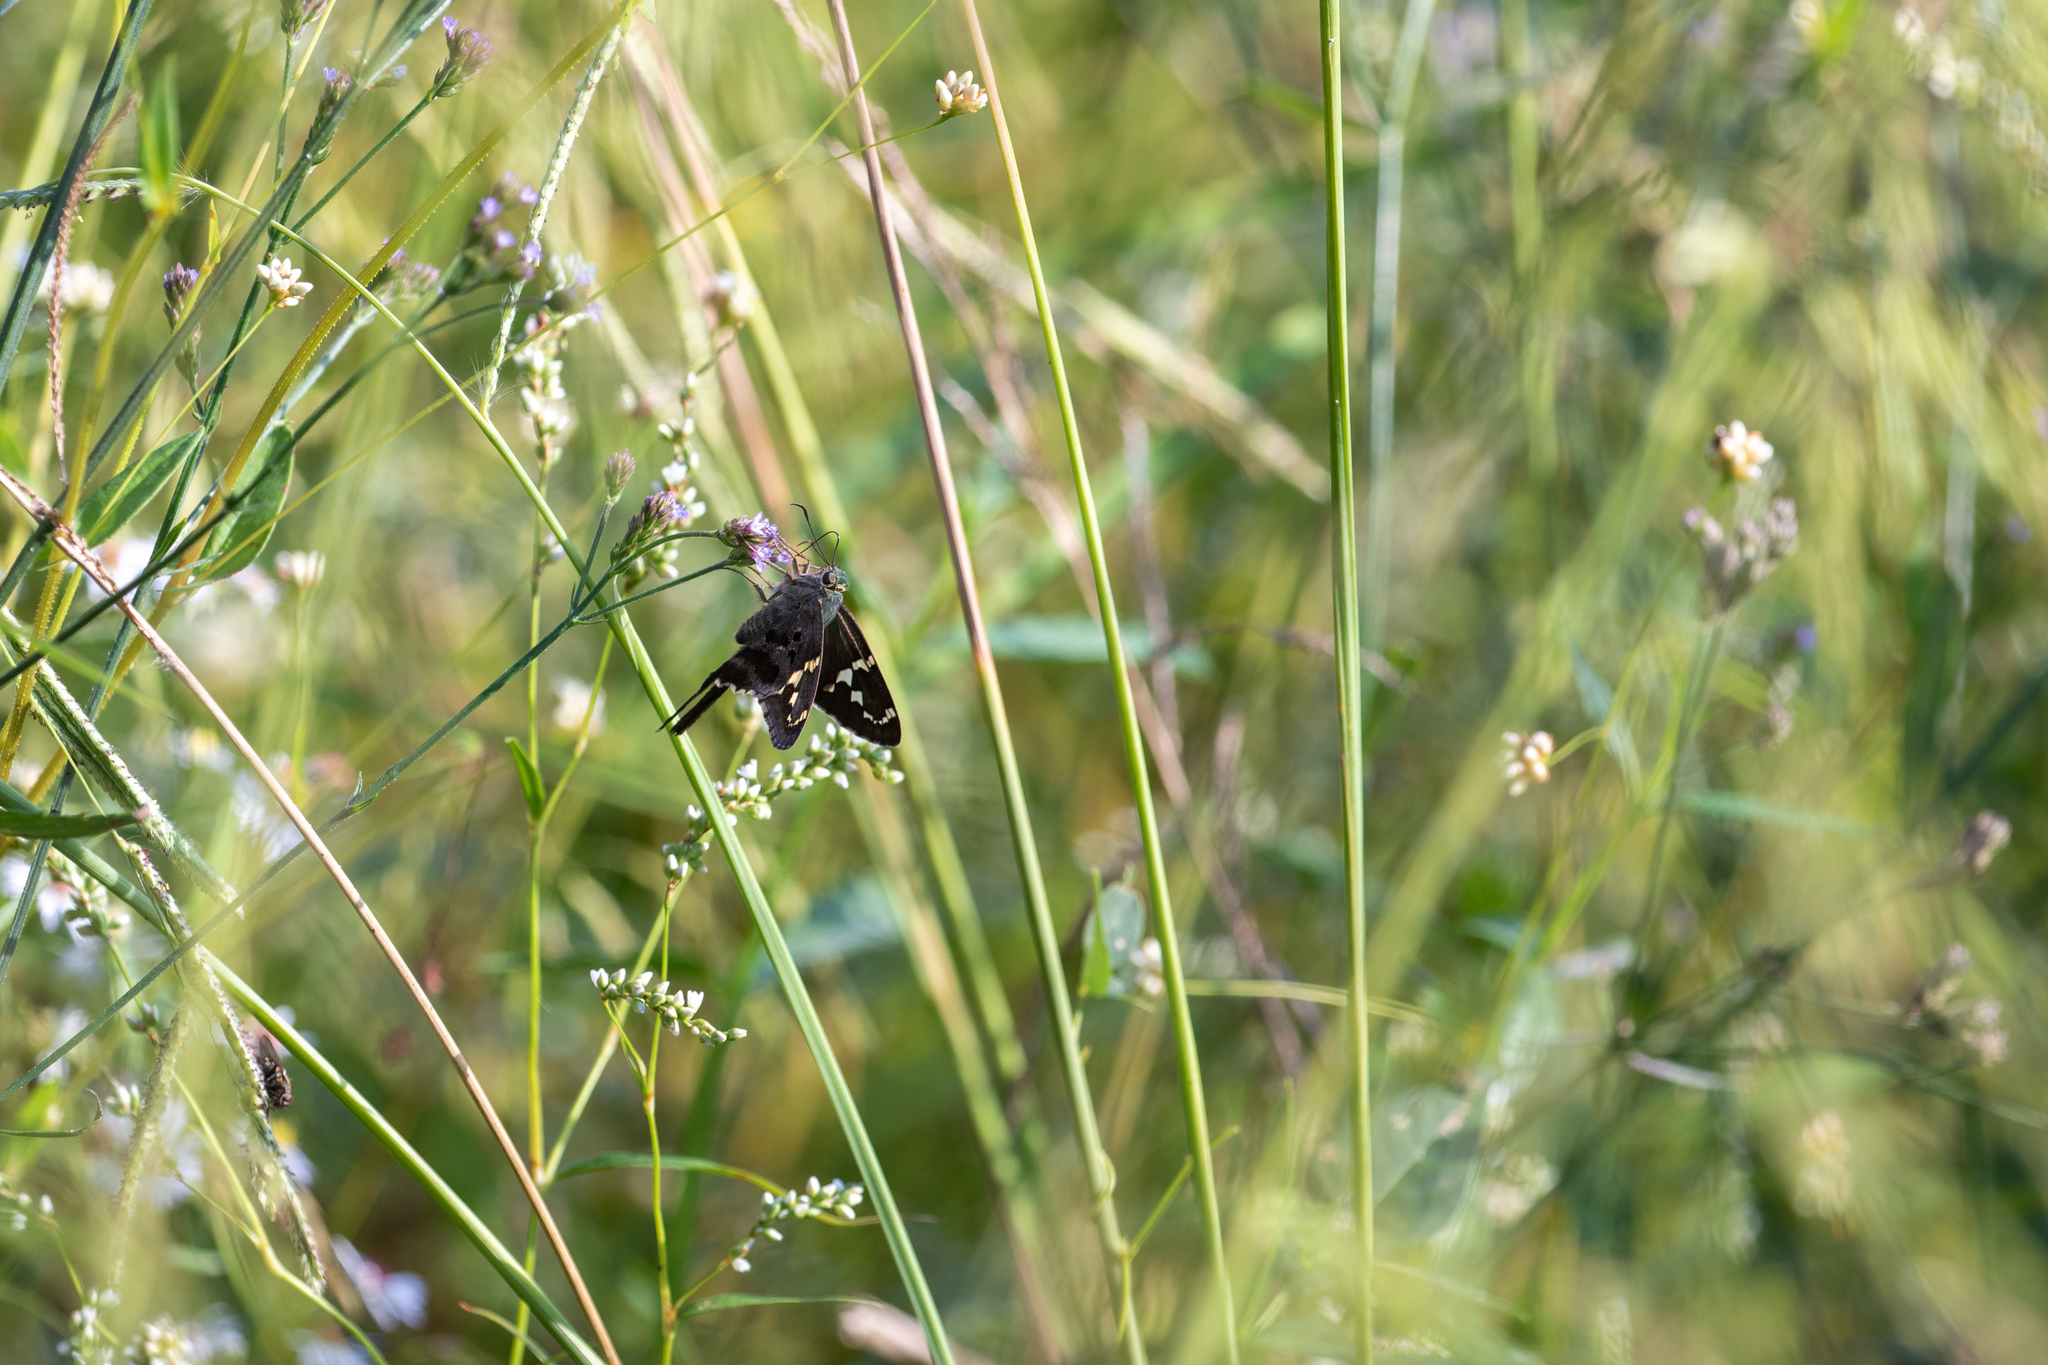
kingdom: Animalia
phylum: Arthropoda
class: Insecta
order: Lepidoptera
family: Hesperiidae
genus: Urbanus
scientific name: Urbanus proteus
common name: Long-tailed skipper
